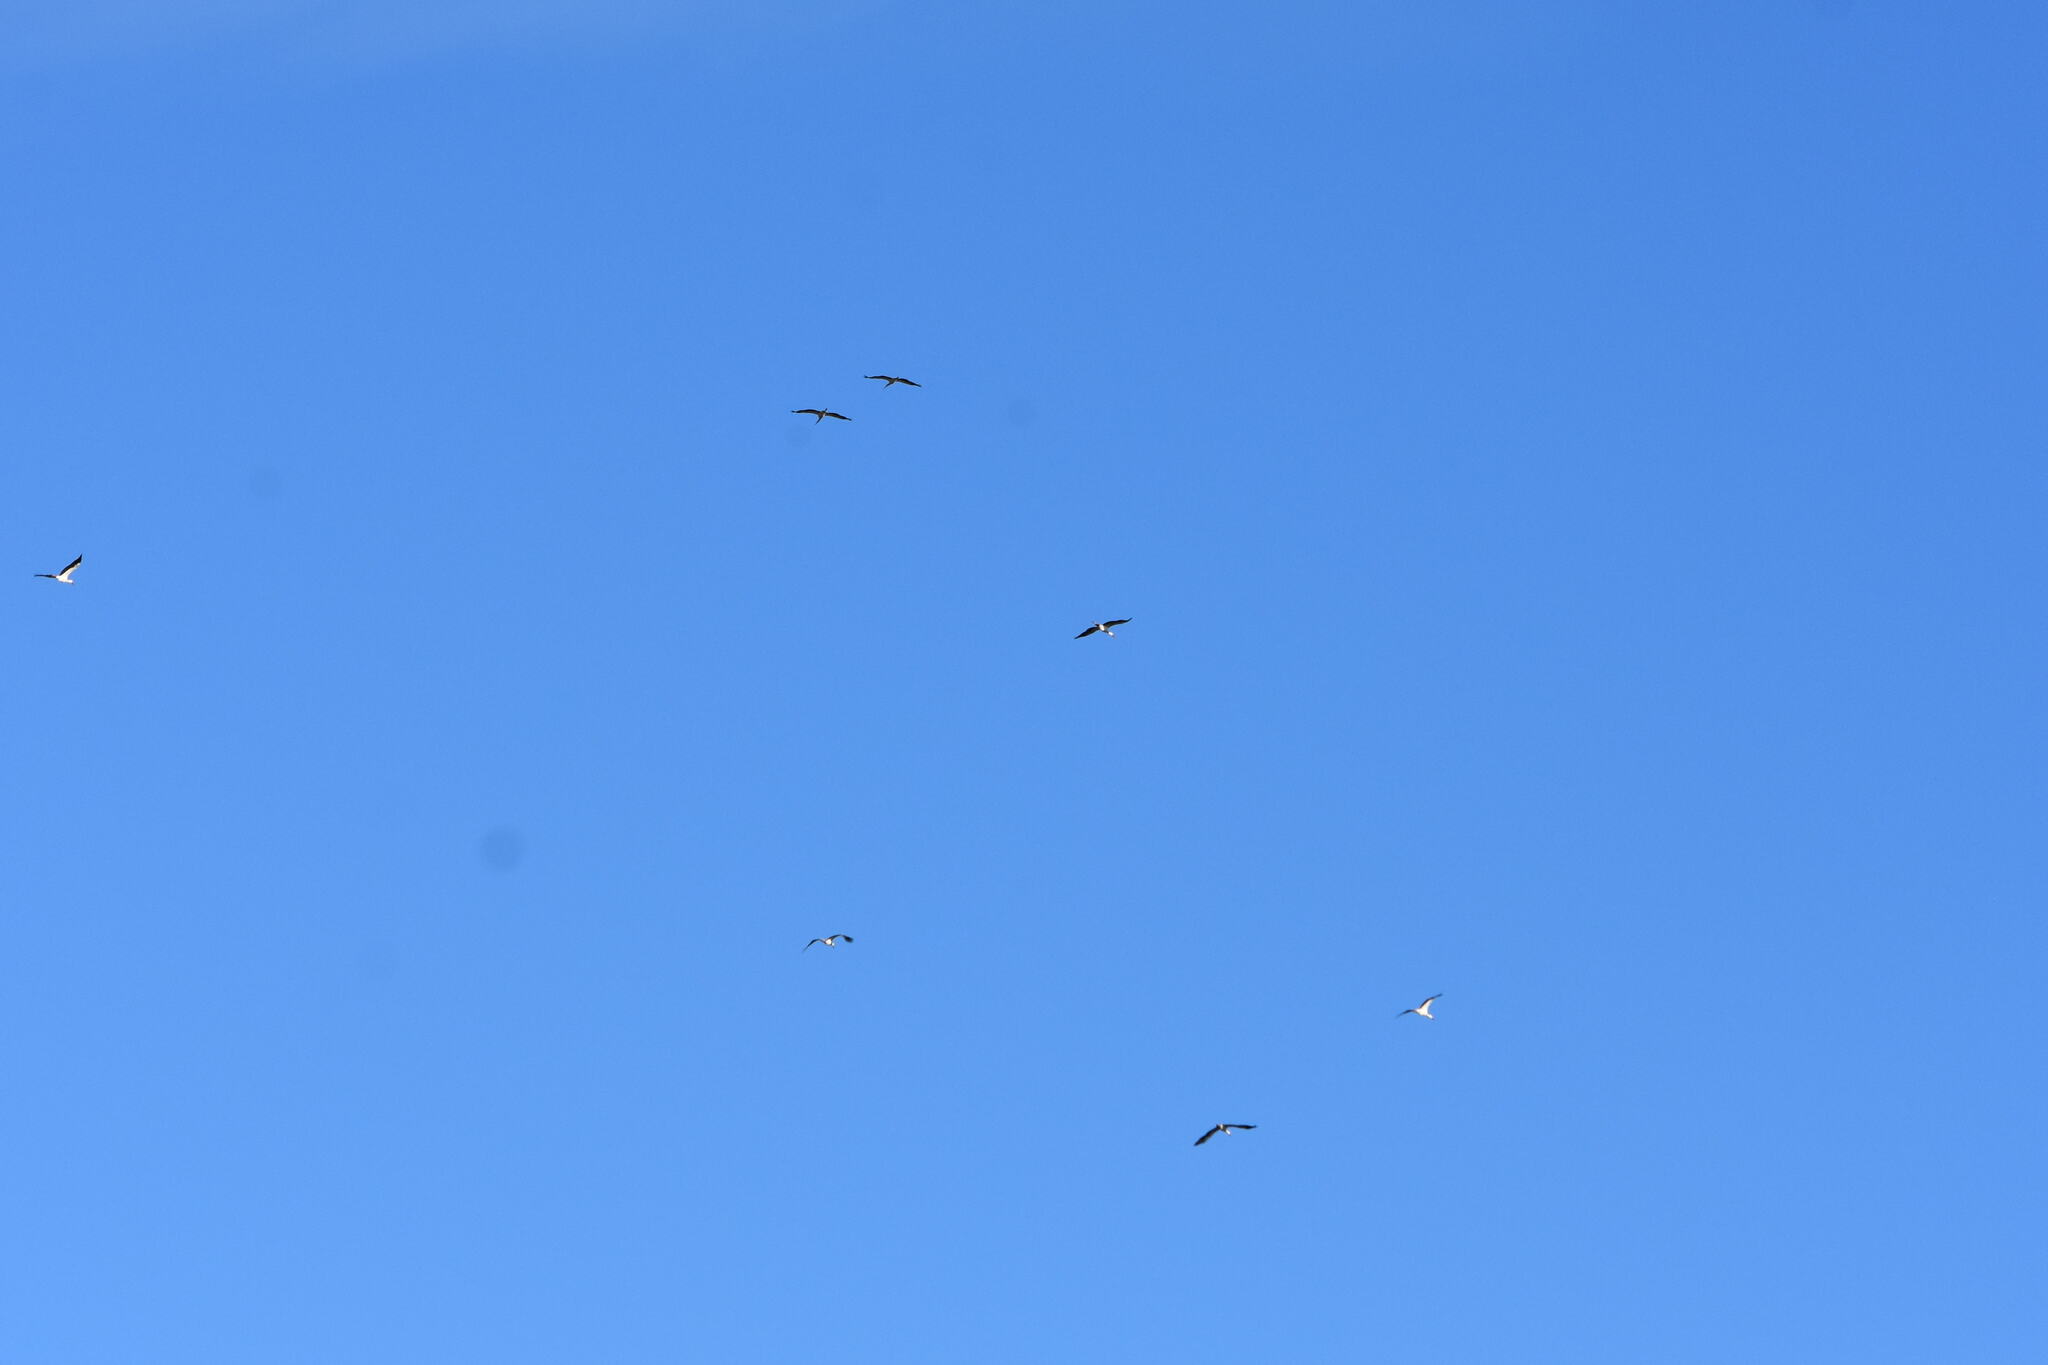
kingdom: Animalia
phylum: Chordata
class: Aves
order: Ciconiiformes
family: Ciconiidae
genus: Ciconia
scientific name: Ciconia ciconia
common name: White stork
